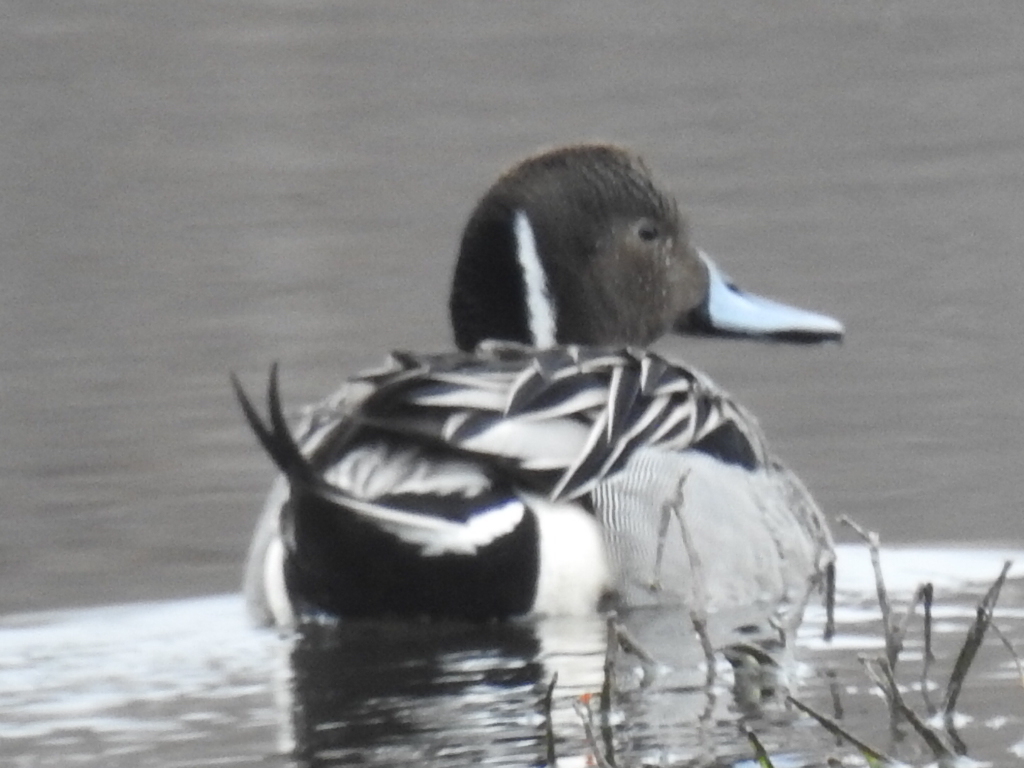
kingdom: Animalia
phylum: Chordata
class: Aves
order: Anseriformes
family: Anatidae
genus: Anas
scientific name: Anas acuta
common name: Northern pintail
